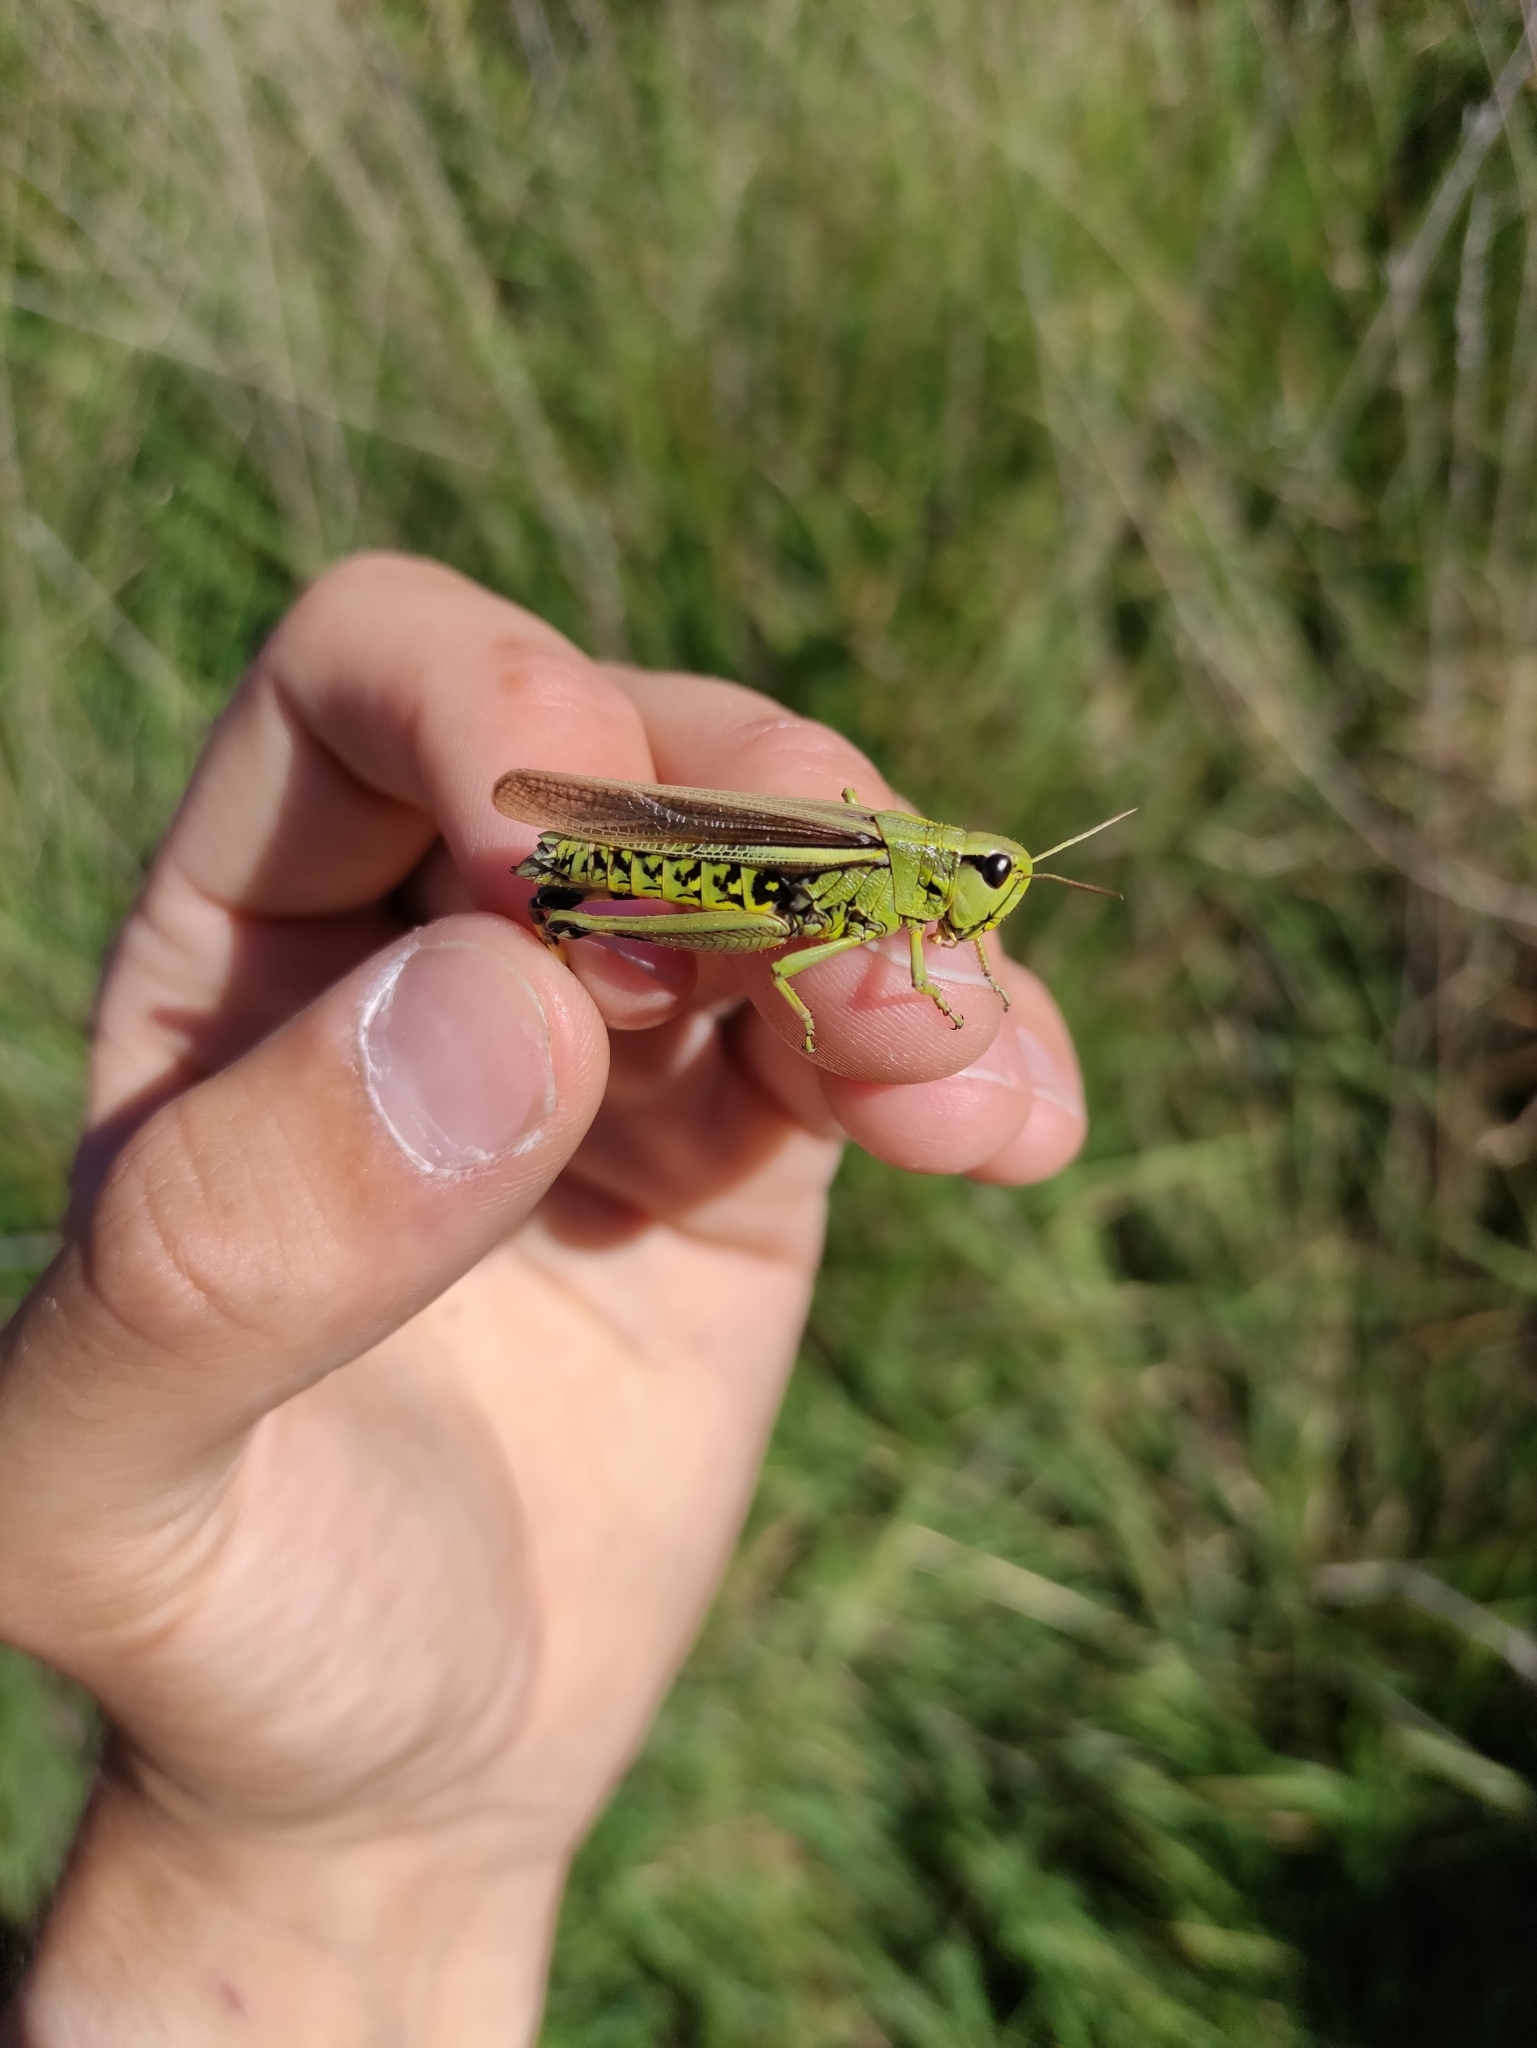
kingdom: Animalia
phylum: Arthropoda
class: Insecta
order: Orthoptera
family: Acrididae
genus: Stethophyma
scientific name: Stethophyma grossum
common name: Large marsh grasshopper
